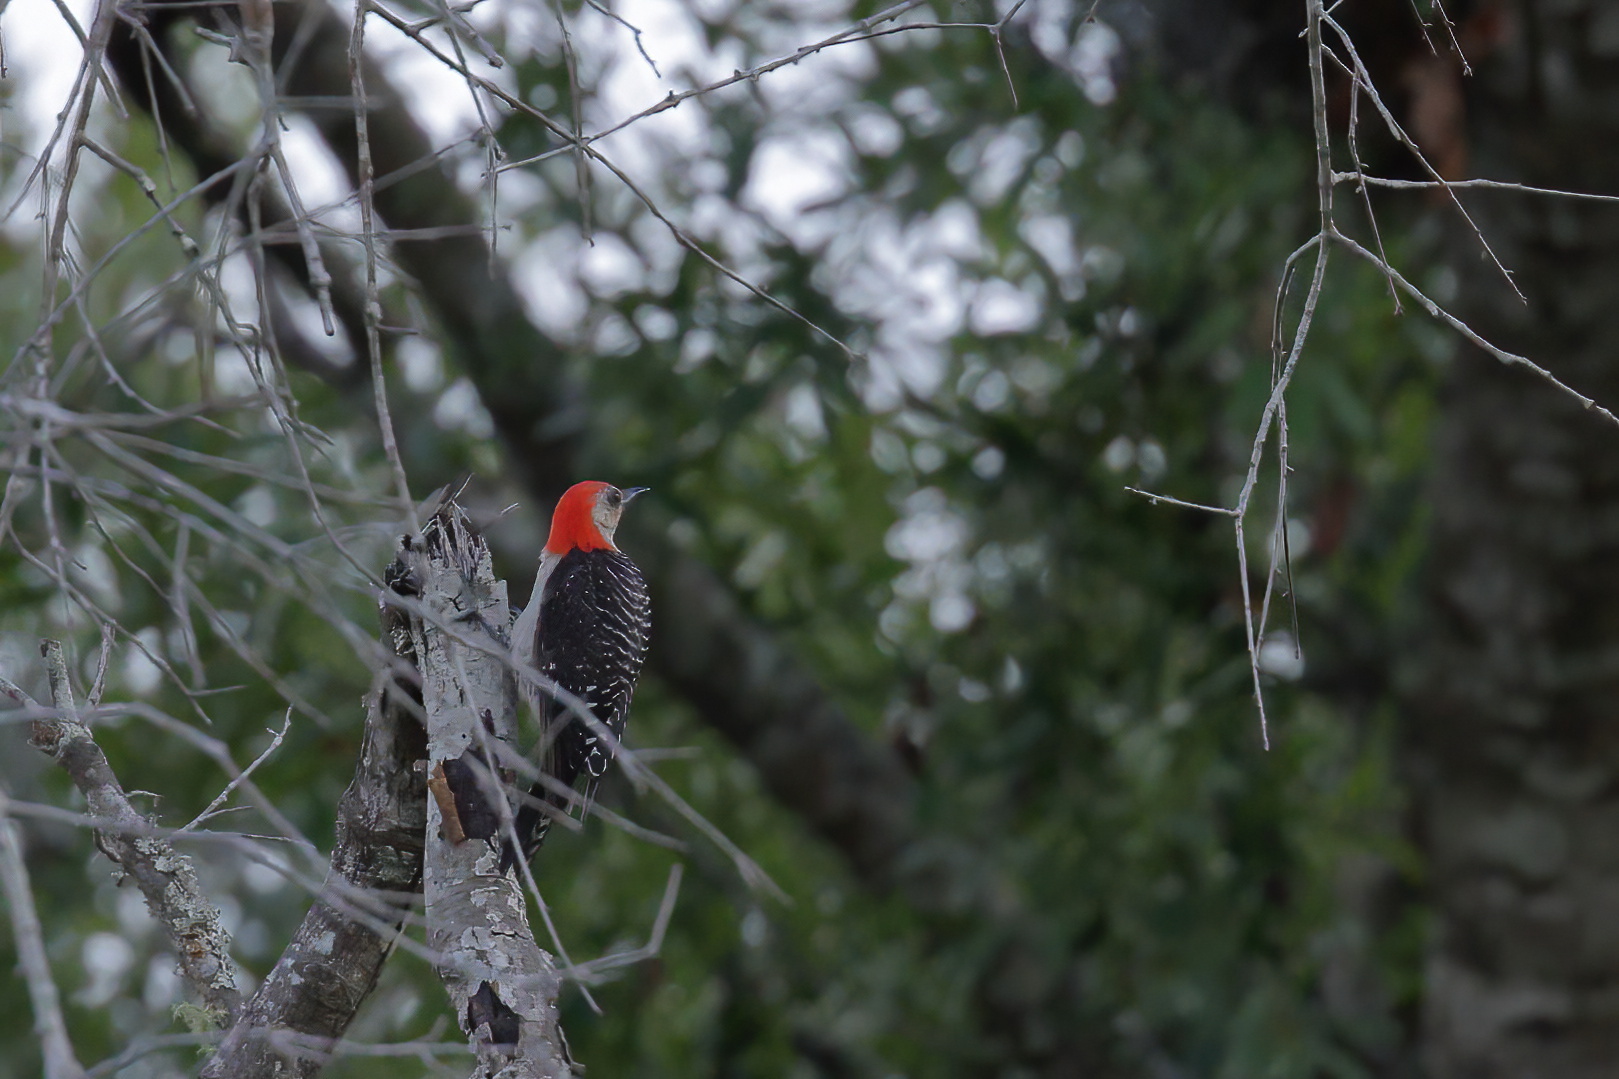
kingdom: Animalia
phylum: Chordata
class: Aves
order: Piciformes
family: Picidae
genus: Melanerpes
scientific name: Melanerpes carolinus
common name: Red-bellied woodpecker
